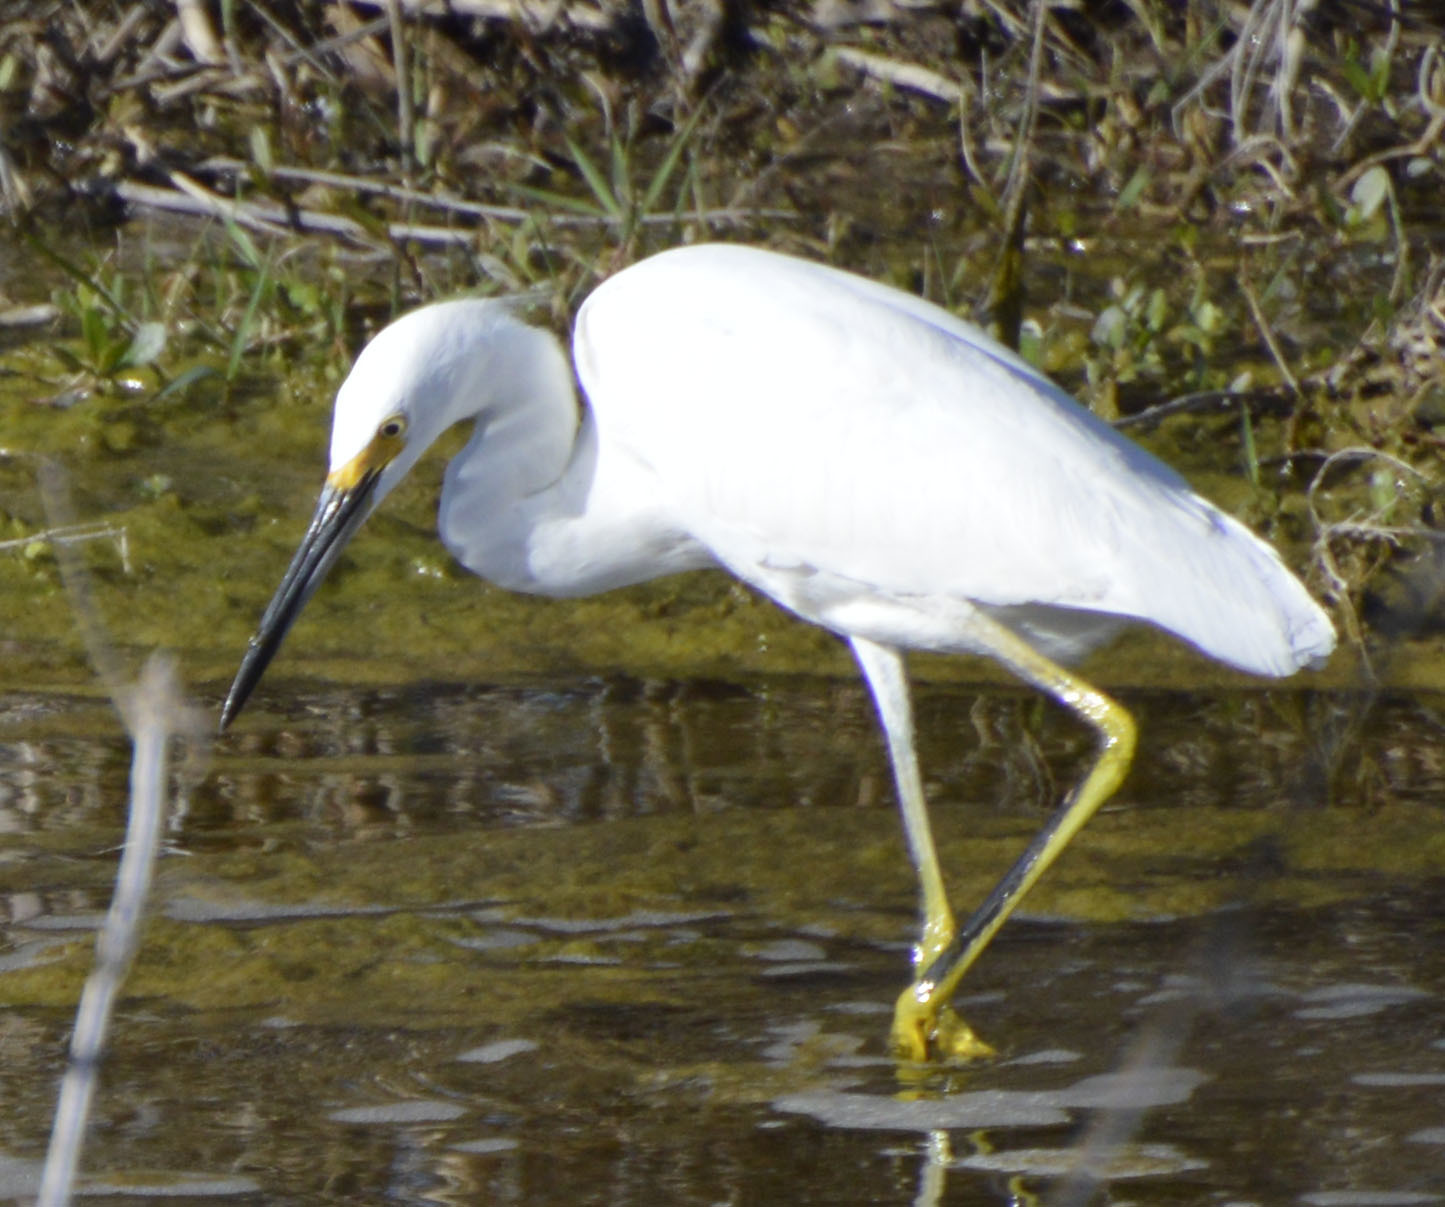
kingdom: Animalia
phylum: Chordata
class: Aves
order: Pelecaniformes
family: Ardeidae
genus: Egretta
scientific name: Egretta thula
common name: Snowy egret
